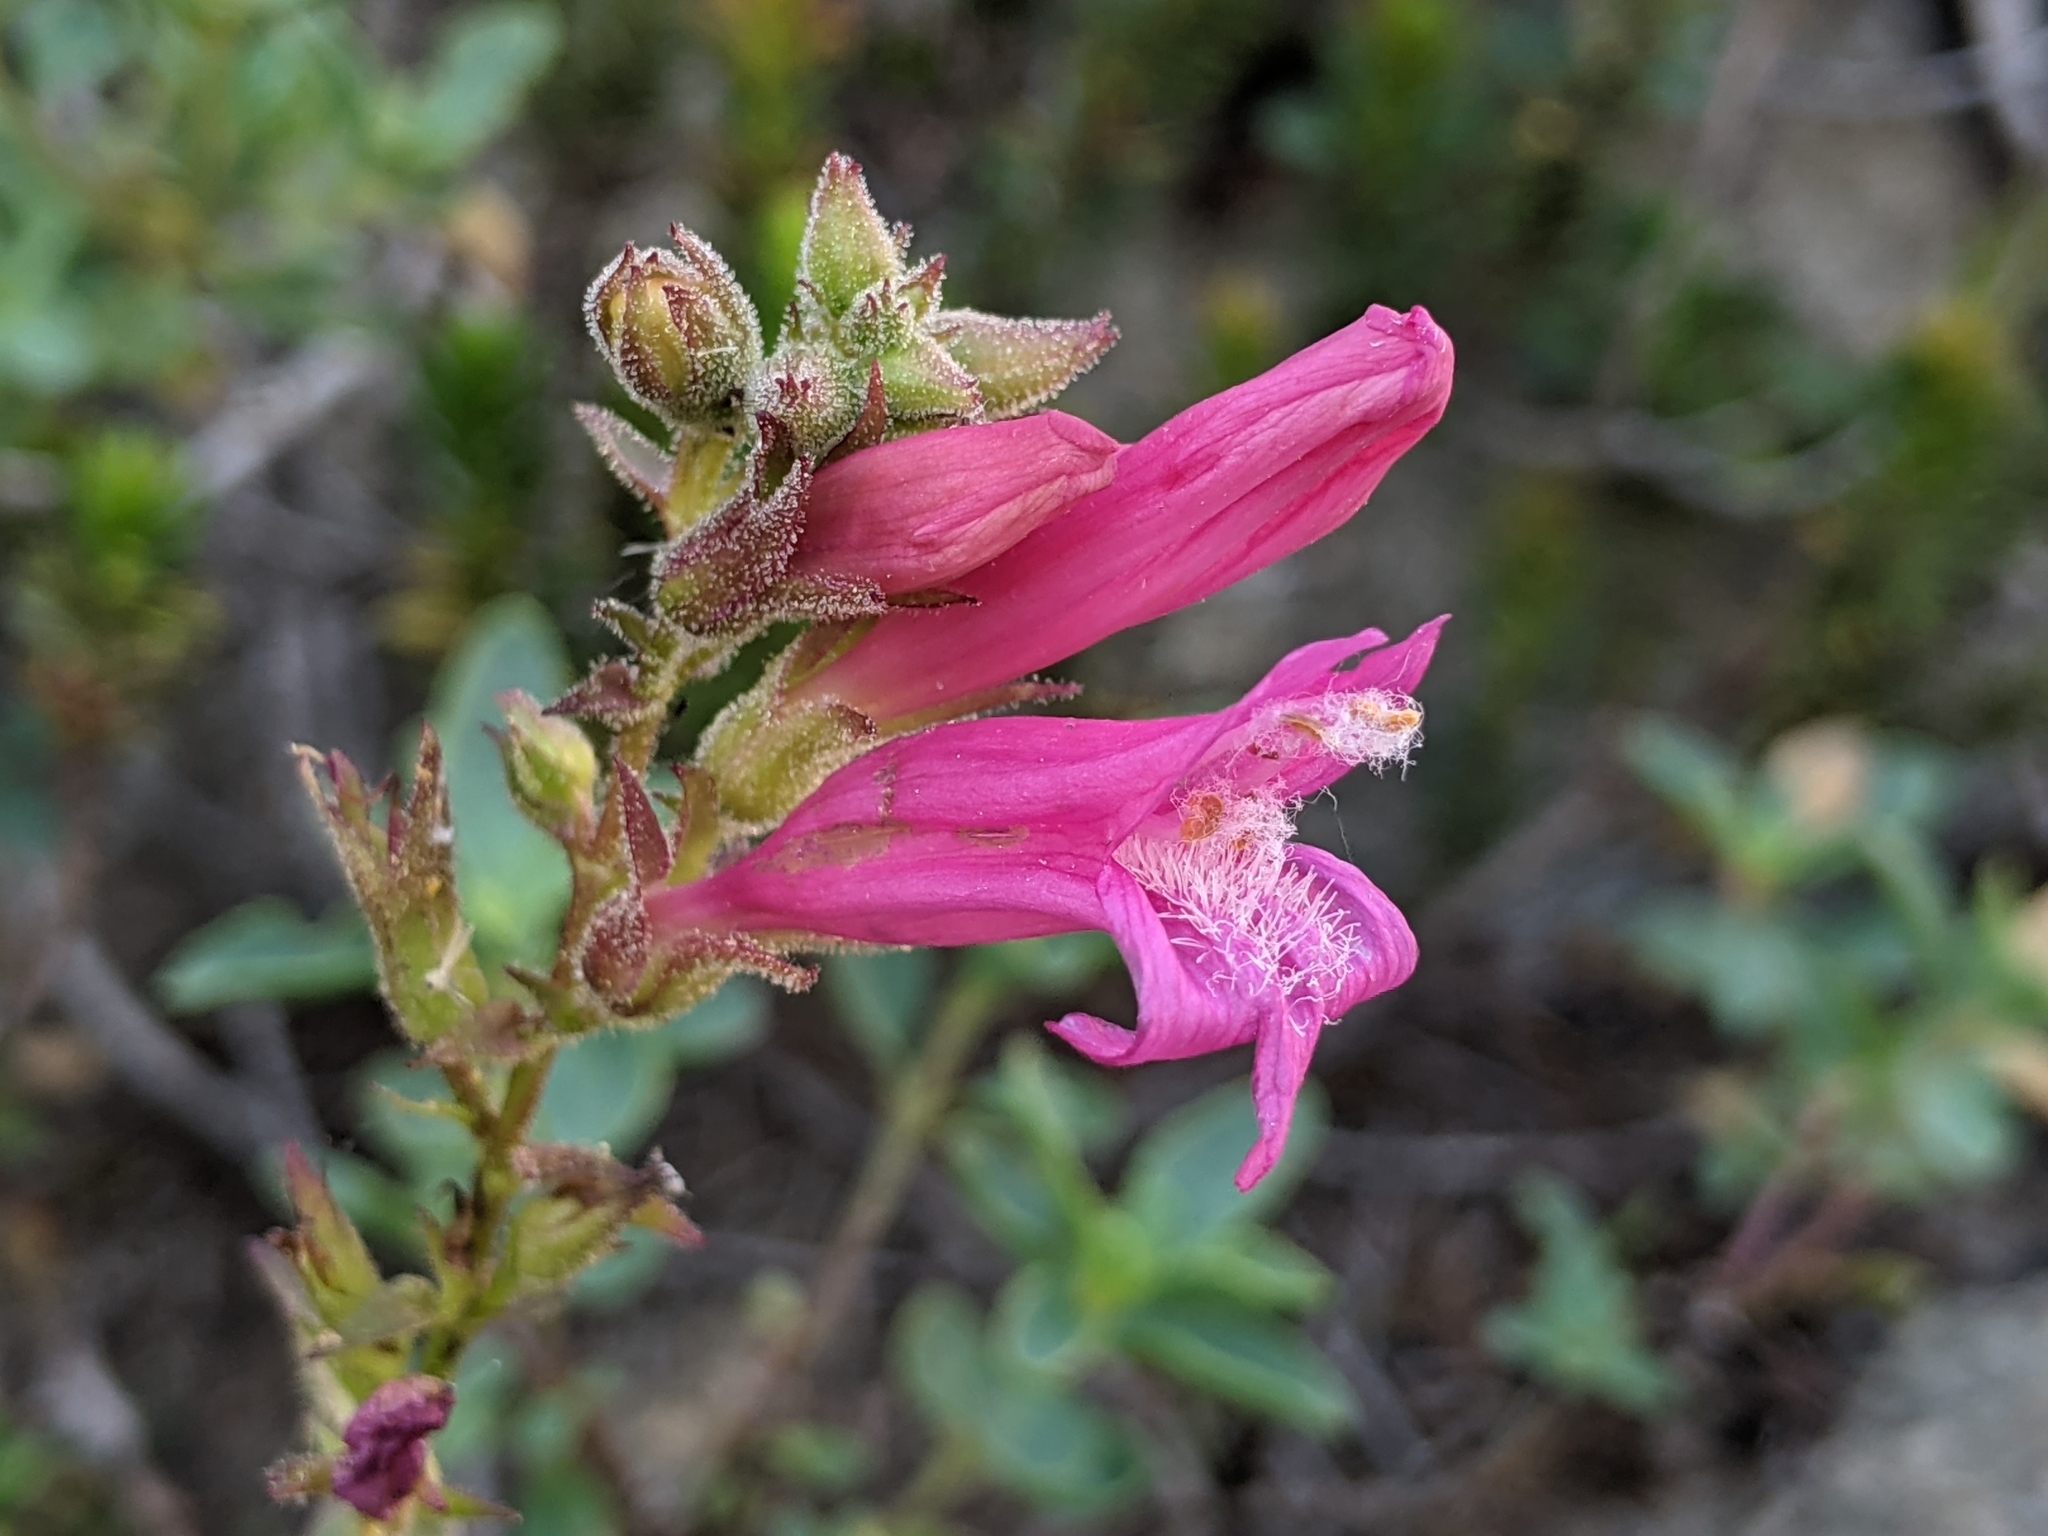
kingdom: Plantae
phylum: Tracheophyta
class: Magnoliopsida
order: Lamiales
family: Plantaginaceae
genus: Penstemon
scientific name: Penstemon newberryi
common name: Mountain-pride
